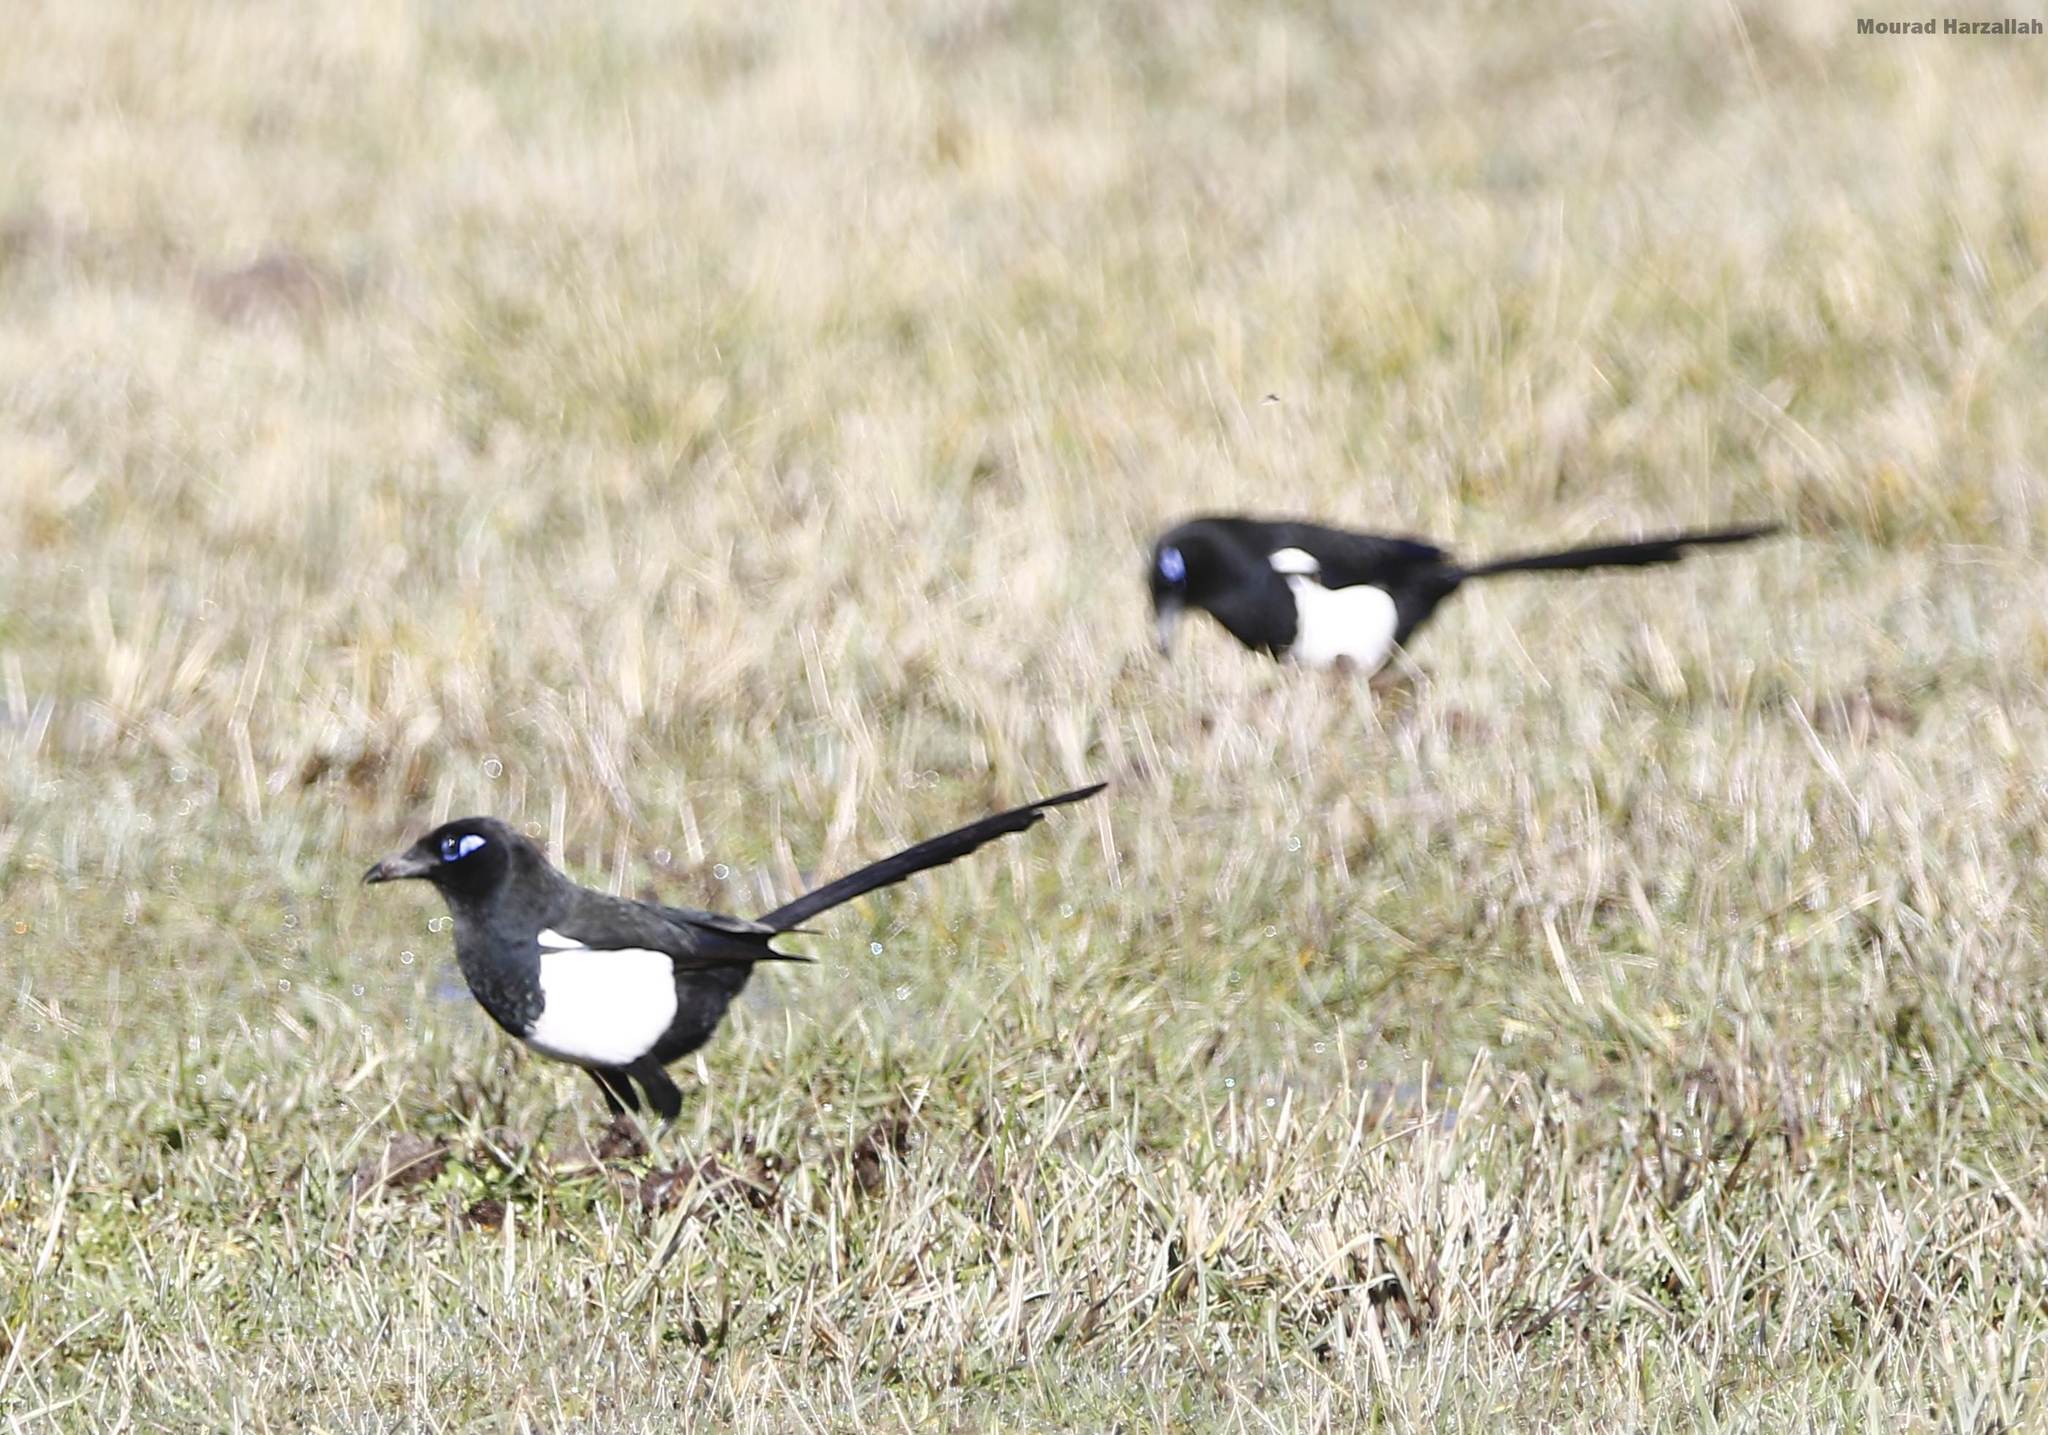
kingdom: Animalia
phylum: Chordata
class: Aves
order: Passeriformes
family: Corvidae
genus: Pica
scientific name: Pica mauritanica
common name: Maghreb magpie
